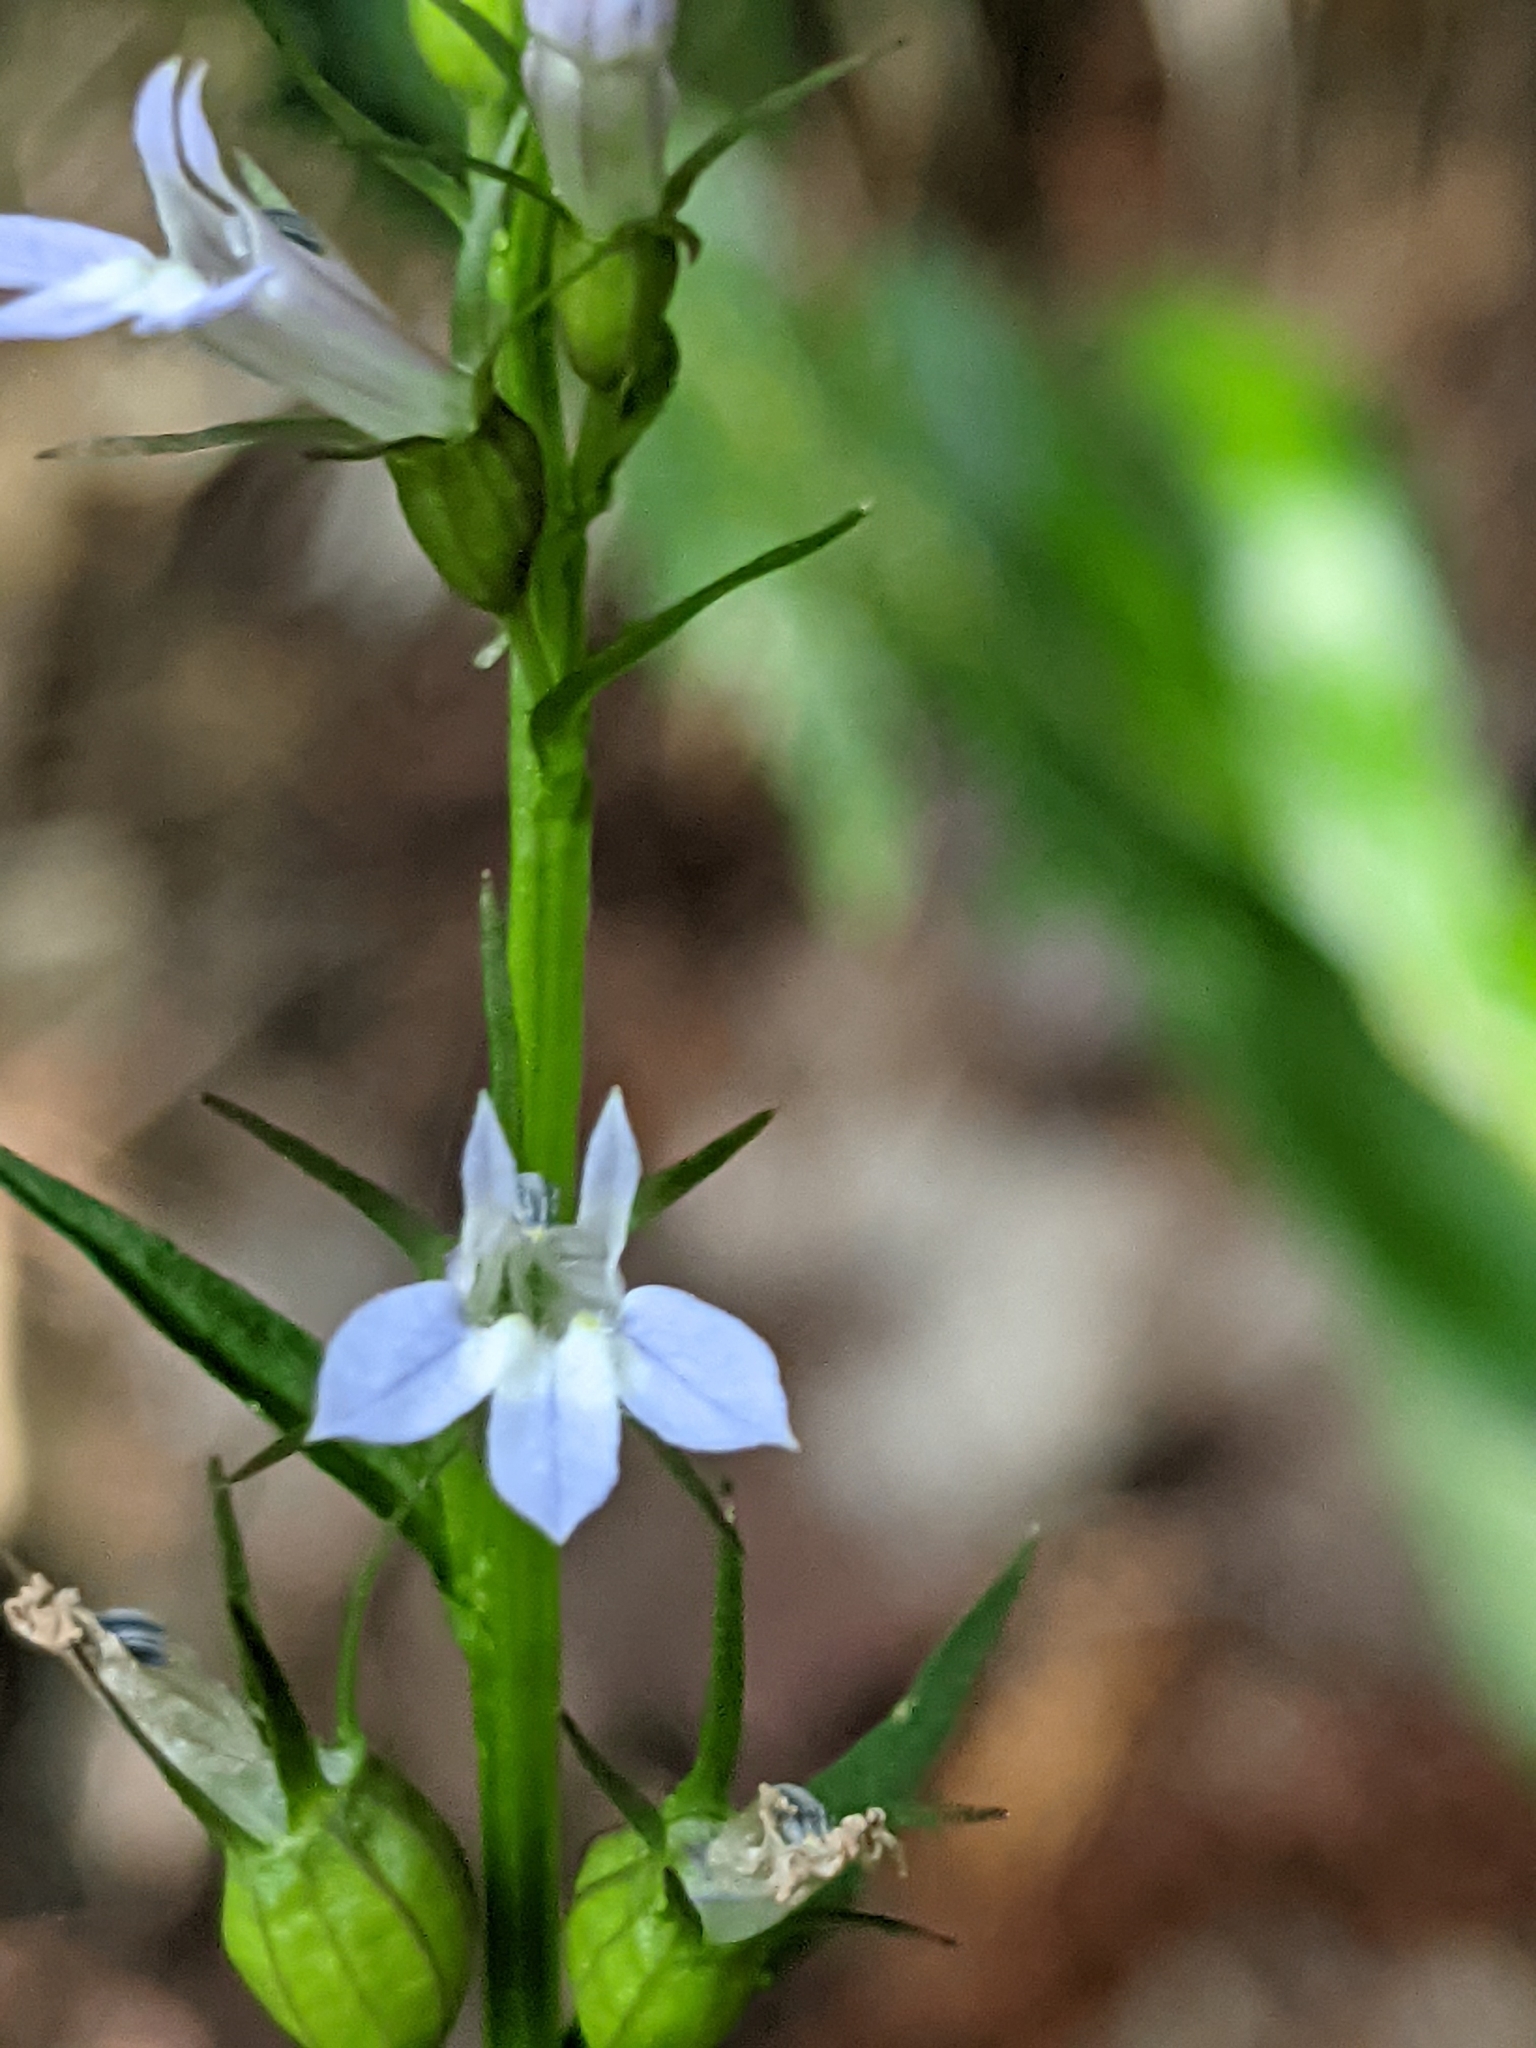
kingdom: Plantae
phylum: Tracheophyta
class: Magnoliopsida
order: Asterales
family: Campanulaceae
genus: Lobelia
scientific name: Lobelia inflata
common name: Indian tobacco
